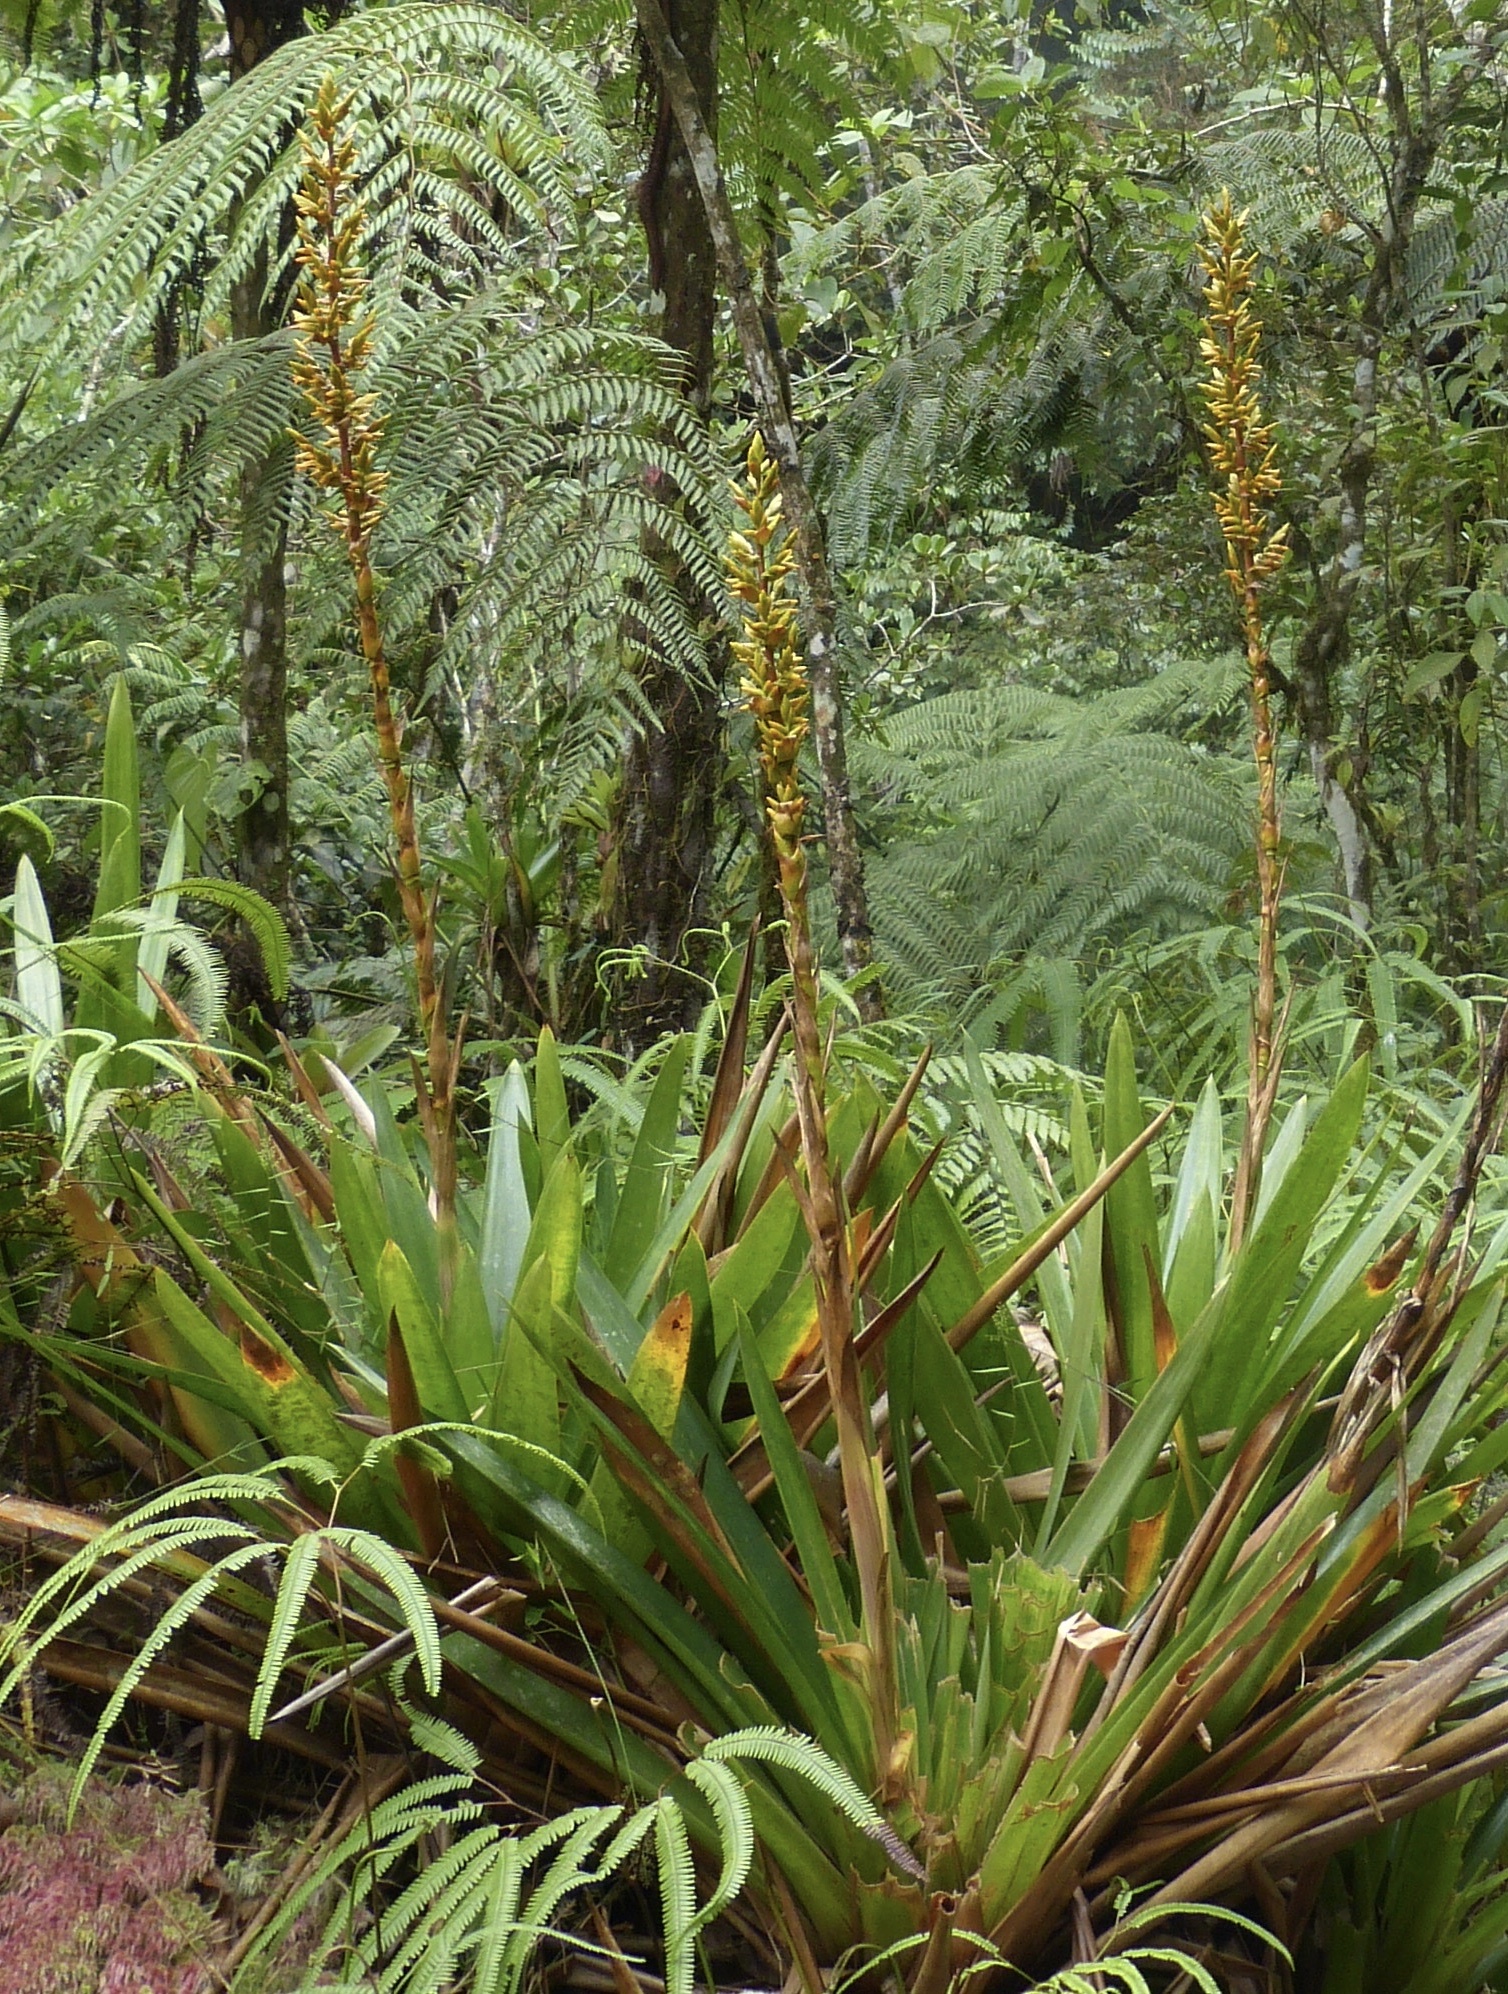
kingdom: Plantae
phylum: Tracheophyta
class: Liliopsida
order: Poales
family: Bromeliaceae
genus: Cipuropsis
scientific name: Cipuropsis hospitalis
